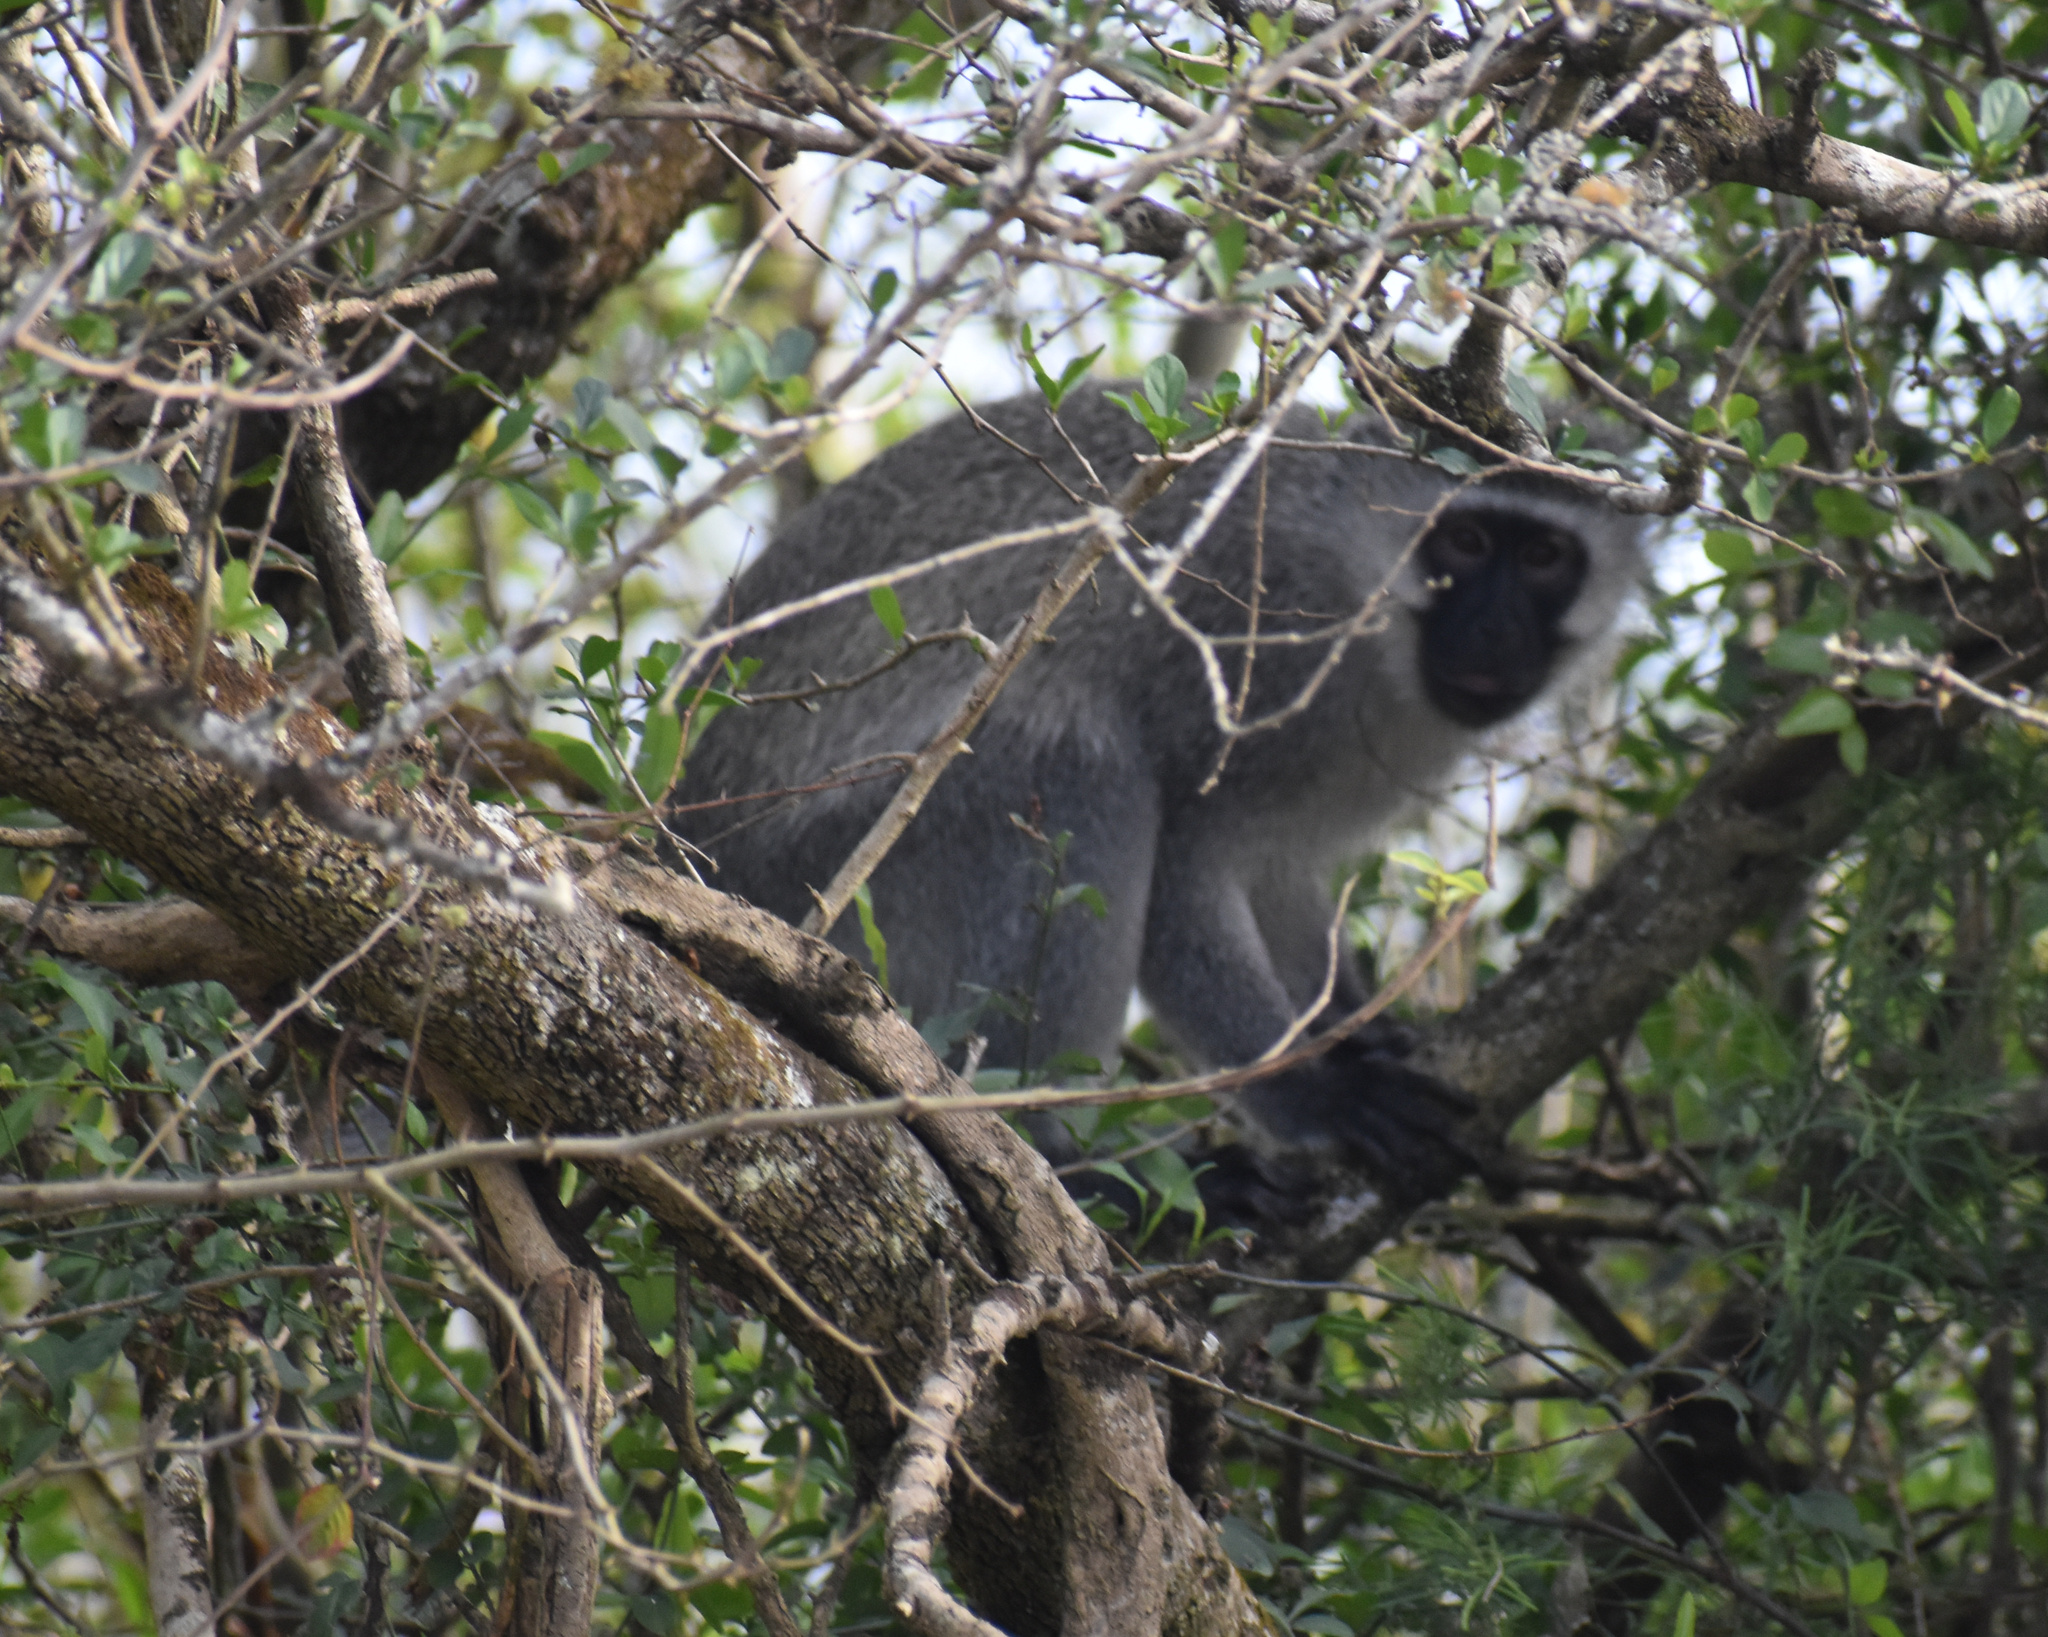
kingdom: Animalia
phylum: Chordata
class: Mammalia
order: Primates
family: Cercopithecidae
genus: Chlorocebus
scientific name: Chlorocebus pygerythrus
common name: Vervet monkey
